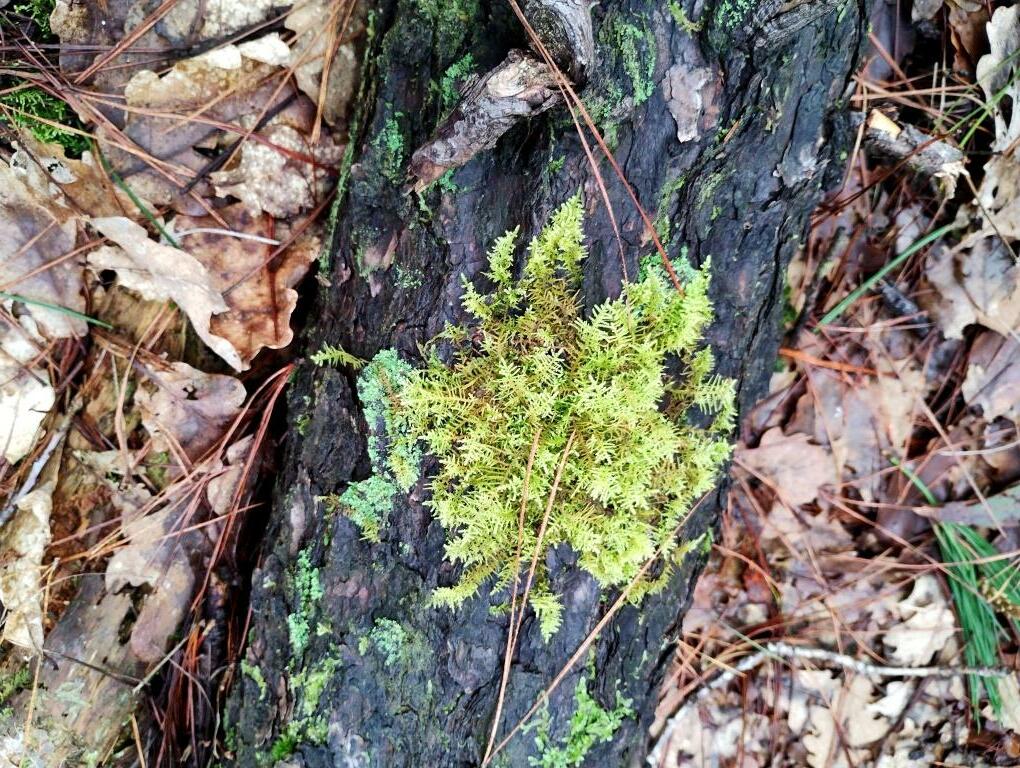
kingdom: Plantae
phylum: Bryophyta
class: Bryopsida
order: Hypnales
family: Thuidiaceae
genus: Thuidiopsis
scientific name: Thuidiopsis sparsa
